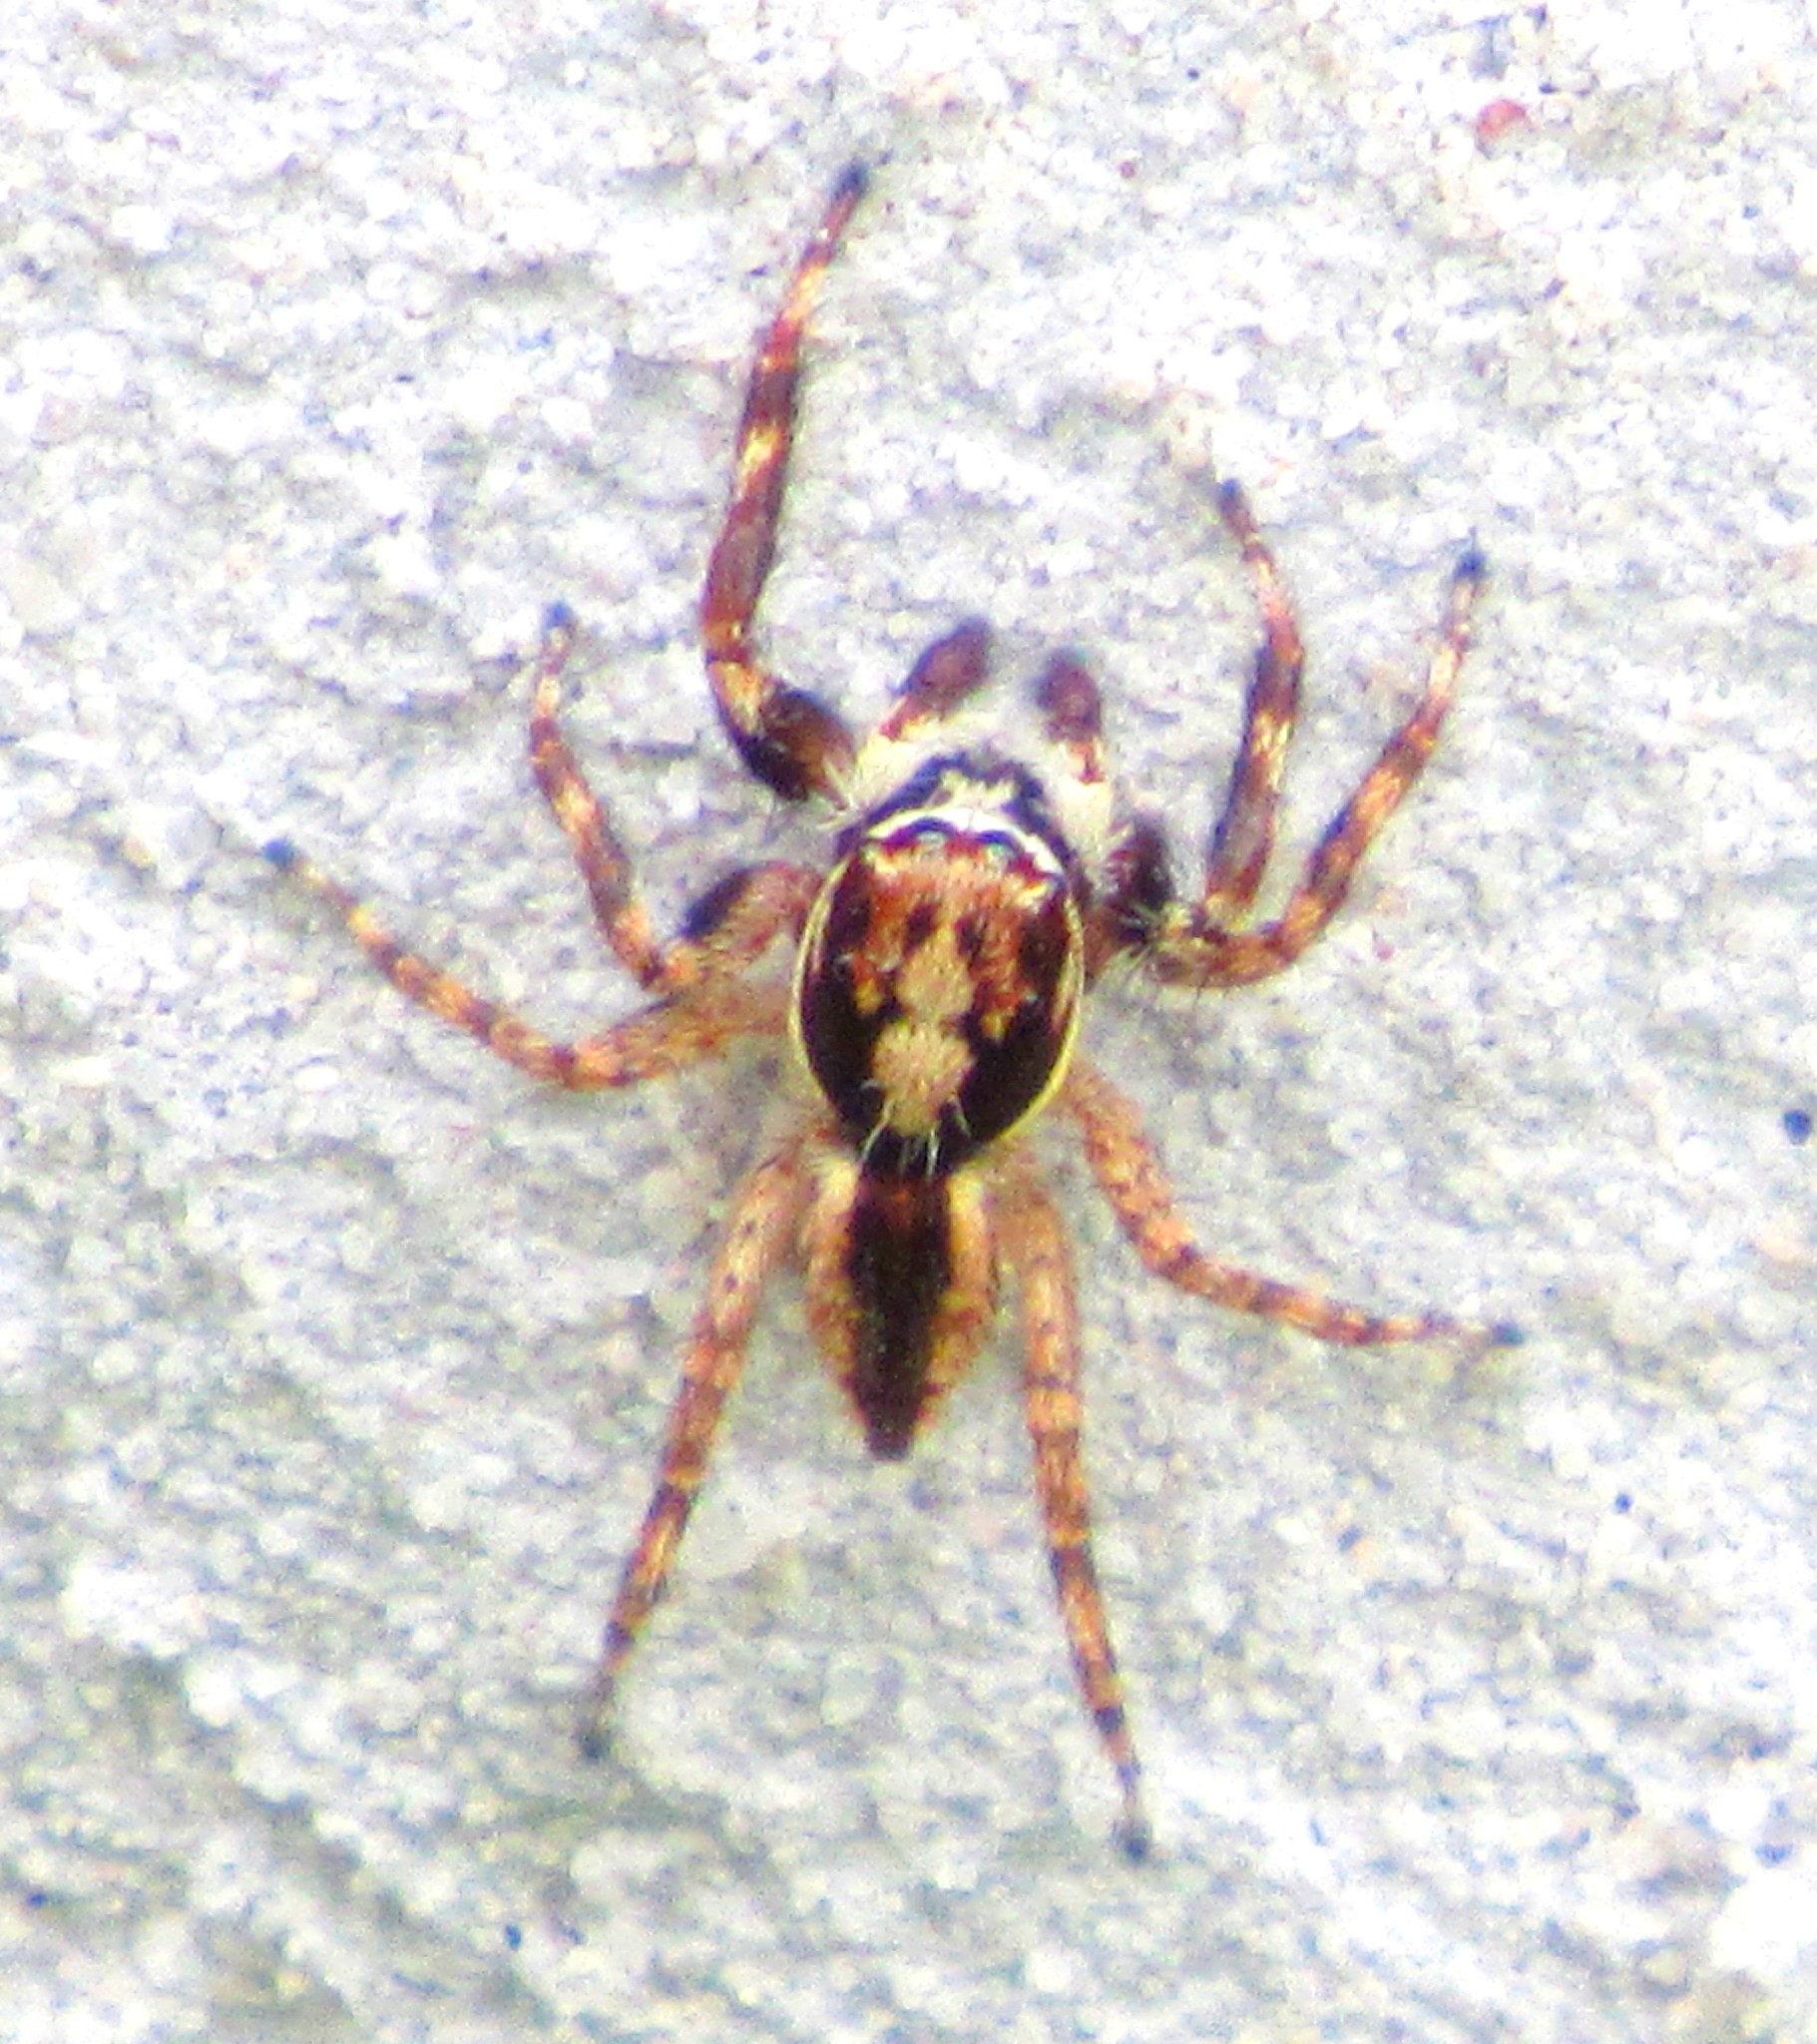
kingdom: Animalia
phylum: Arthropoda
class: Arachnida
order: Araneae
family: Salticidae
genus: Menemerus
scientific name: Menemerus bivittatus
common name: Gray wall jumper
